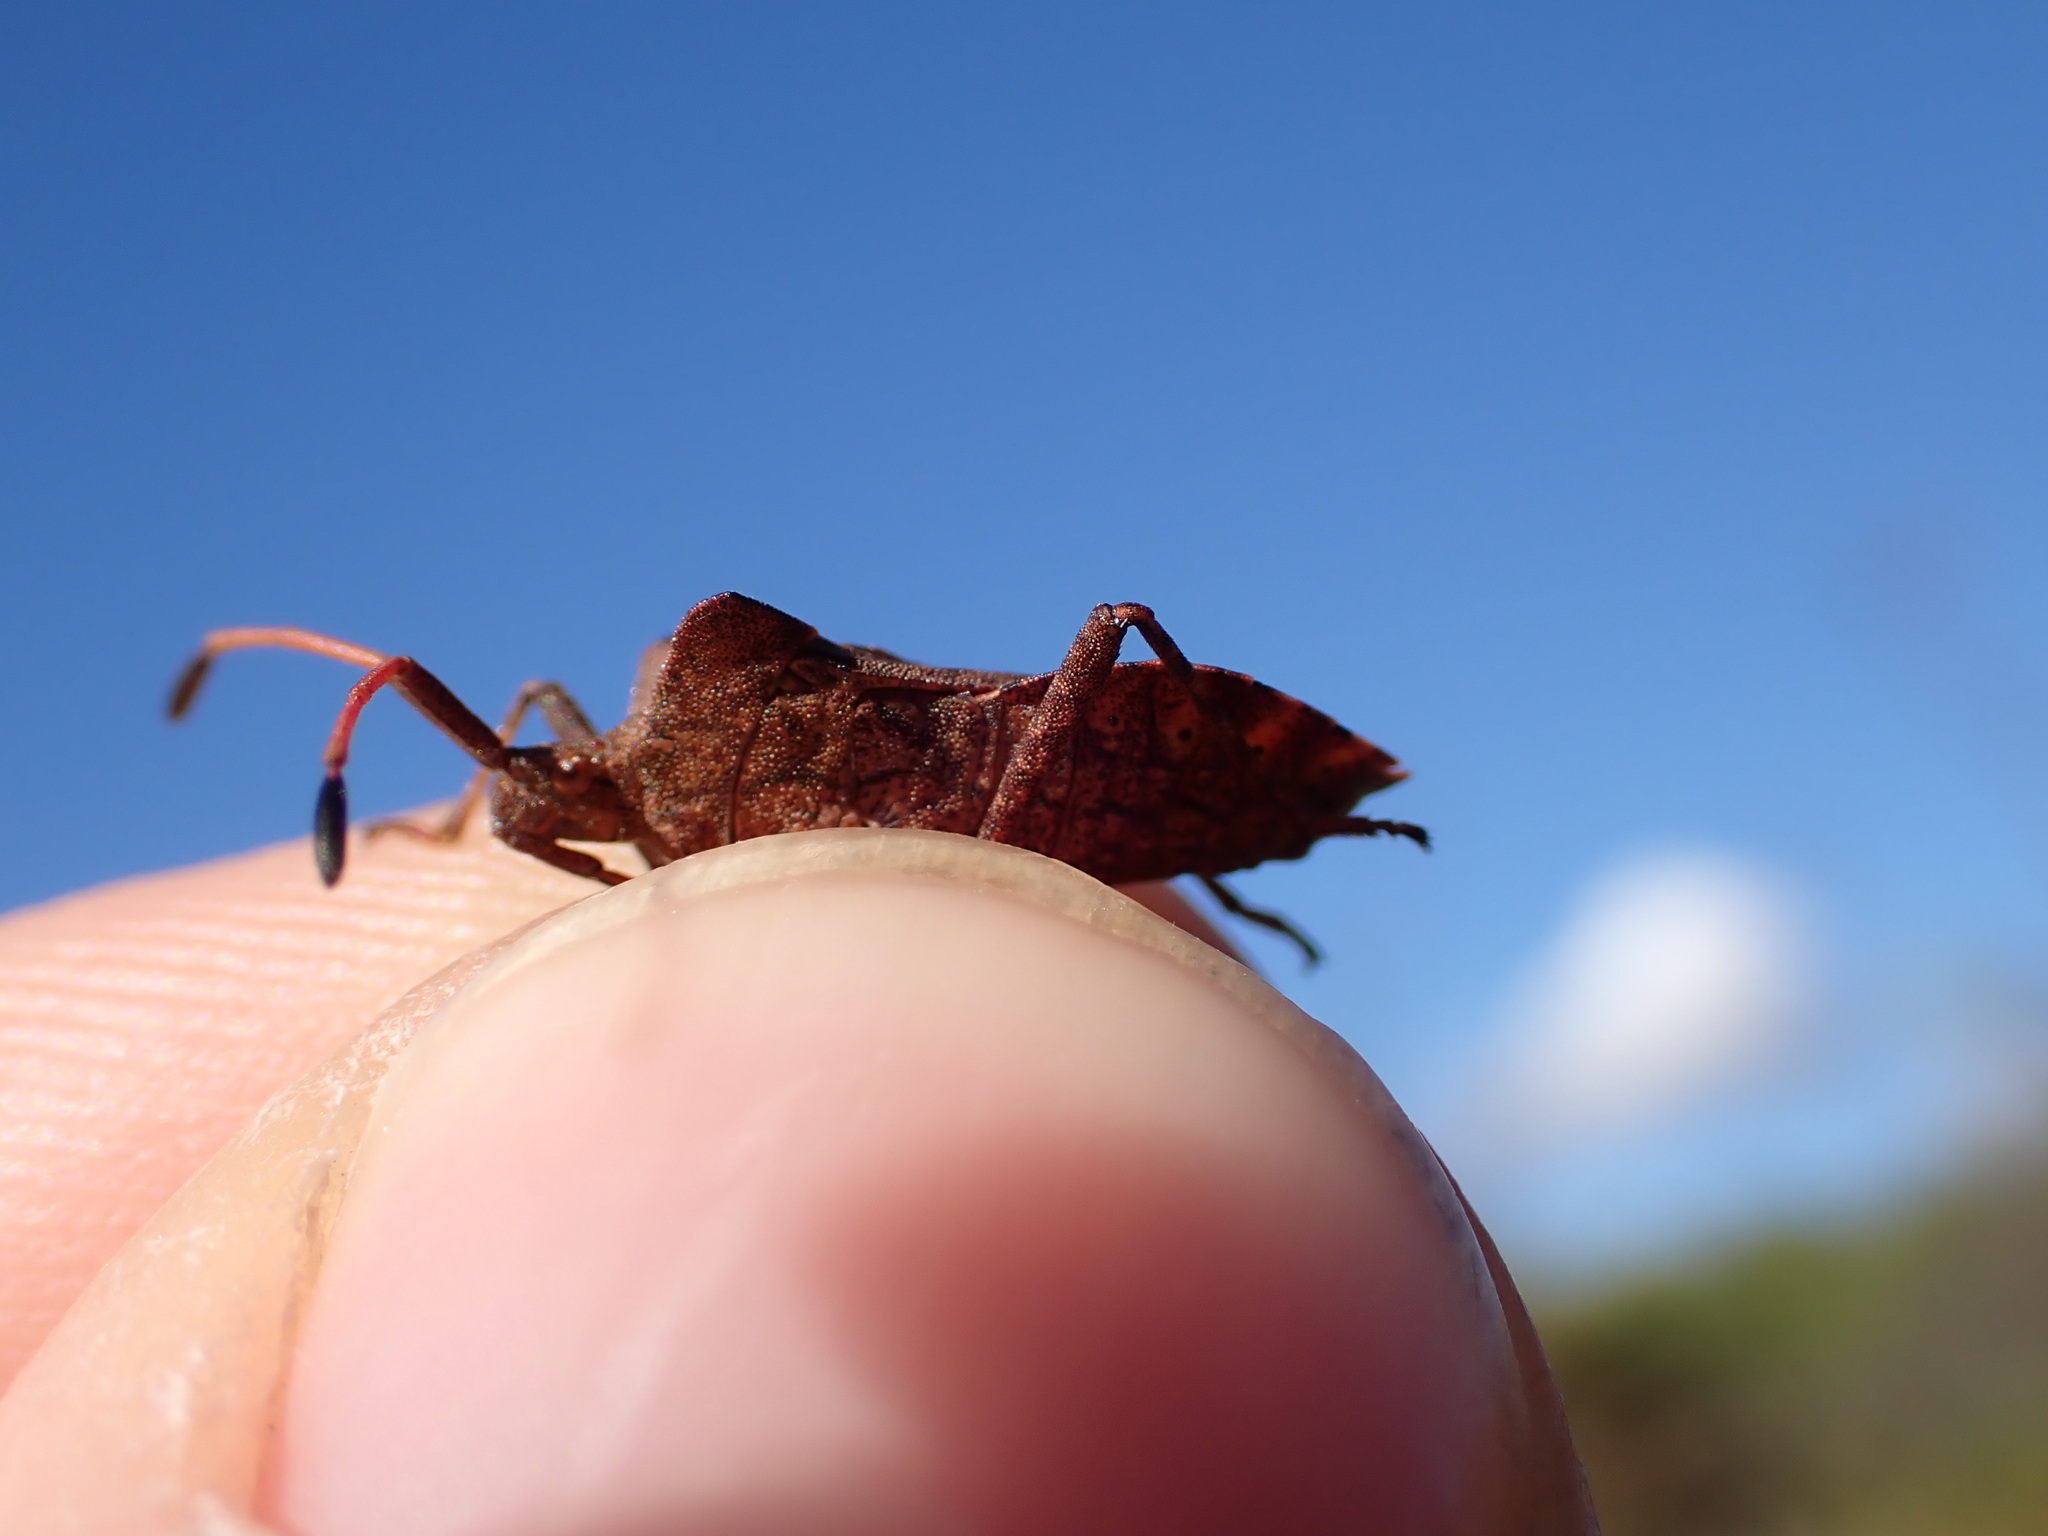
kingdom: Animalia
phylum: Arthropoda
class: Insecta
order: Hemiptera
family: Coreidae
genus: Coreus
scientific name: Coreus marginatus
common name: Dock bug
